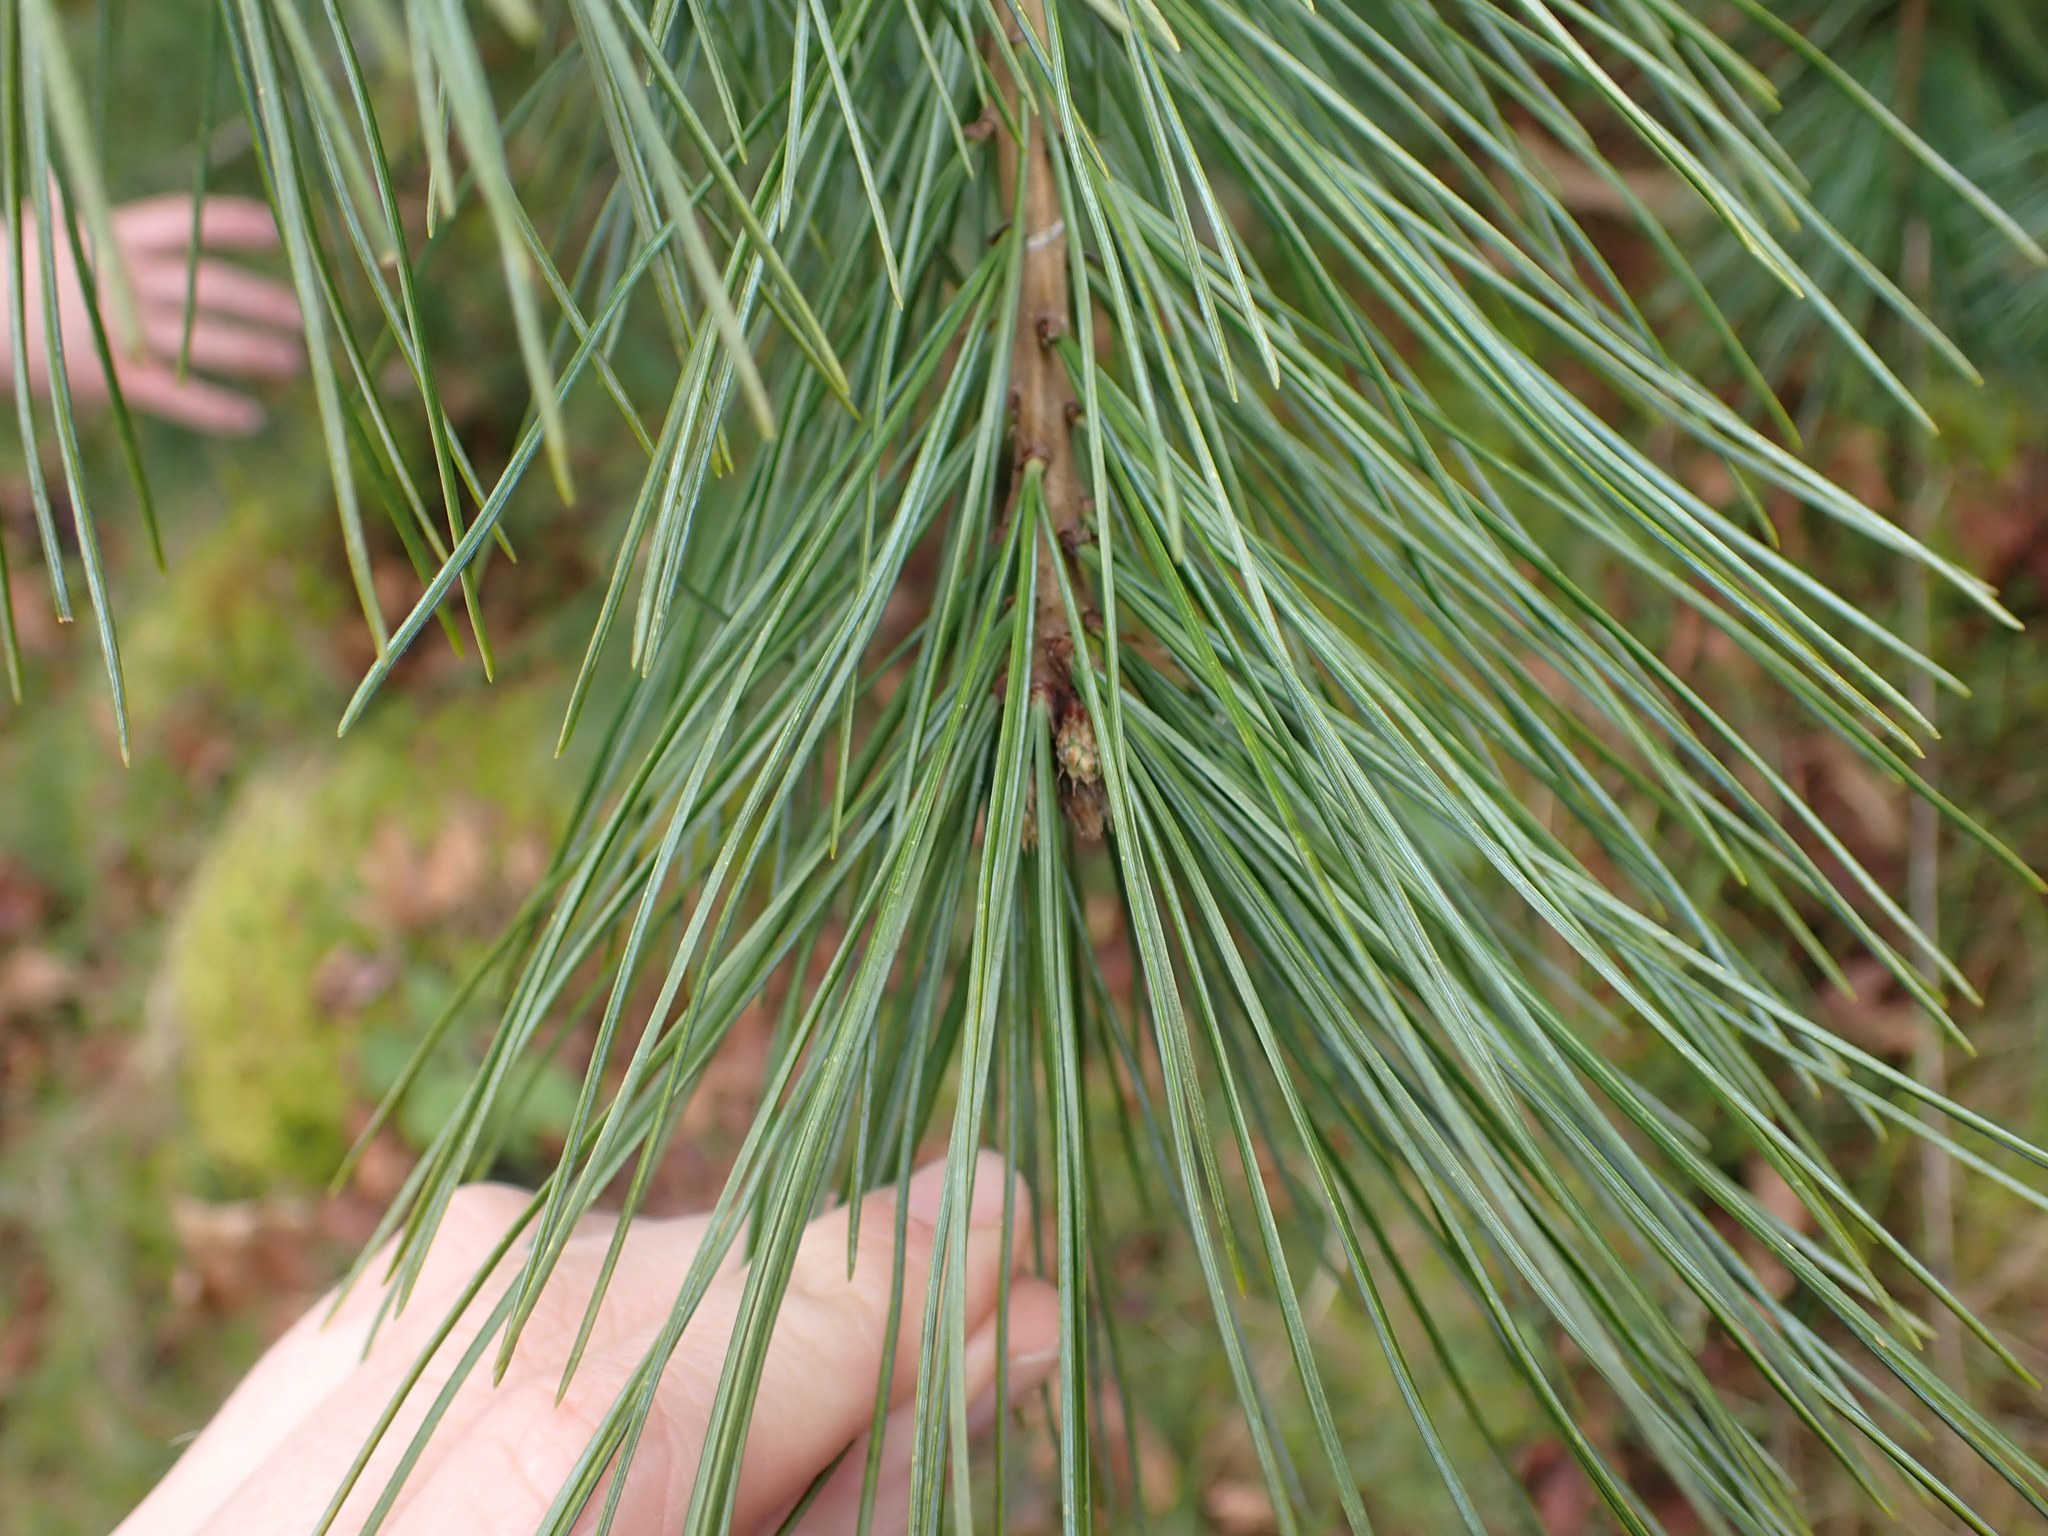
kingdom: Plantae
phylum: Tracheophyta
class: Pinopsida
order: Pinales
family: Pinaceae
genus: Pinus
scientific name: Pinus monticola
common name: Western white pine
